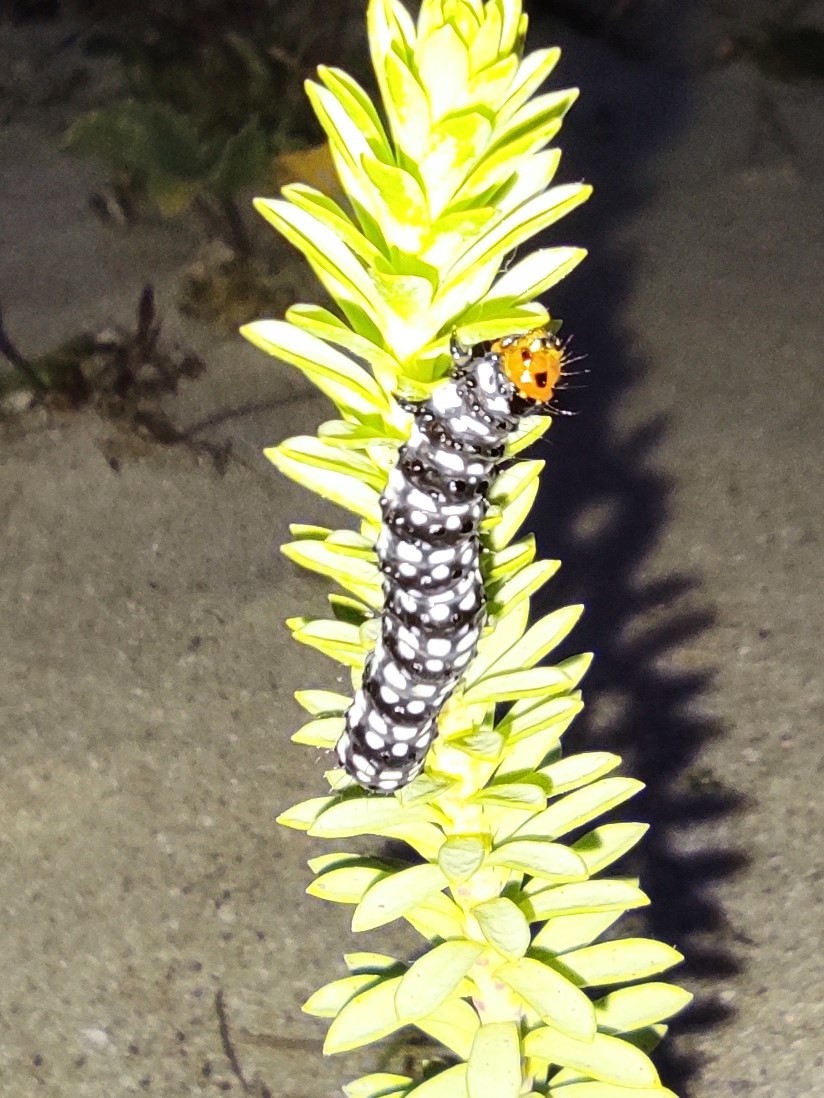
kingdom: Animalia
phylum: Arthropoda
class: Insecta
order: Lepidoptera
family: Noctuidae
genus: Brithys
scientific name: Brithys crini
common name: Kew arches
